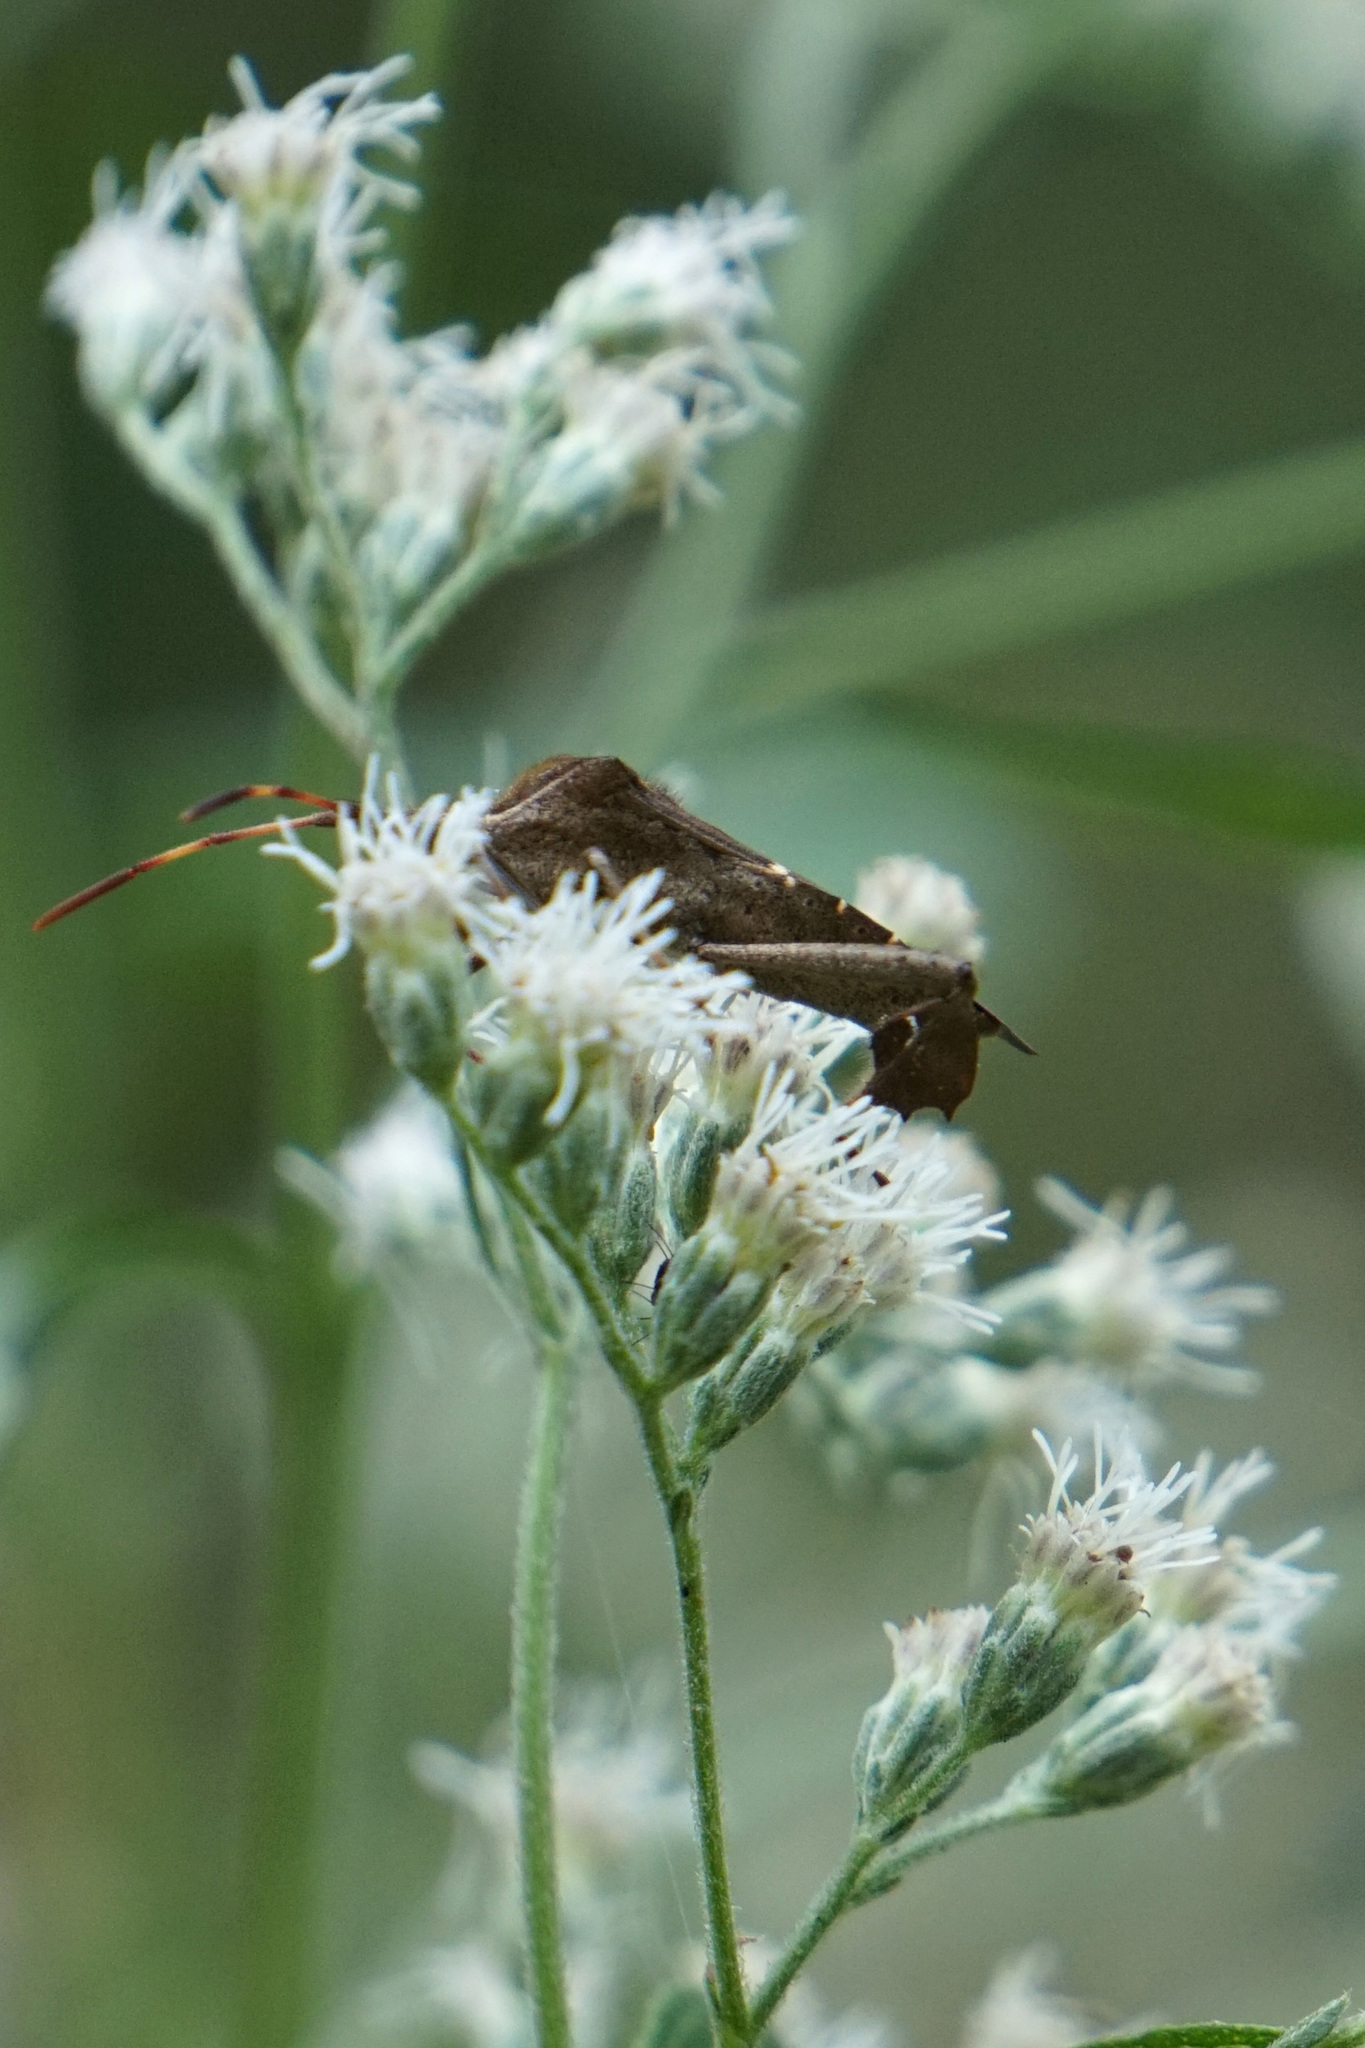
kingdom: Animalia
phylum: Arthropoda
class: Insecta
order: Hemiptera
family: Coreidae
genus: Leptoglossus
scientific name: Leptoglossus phyllopus
